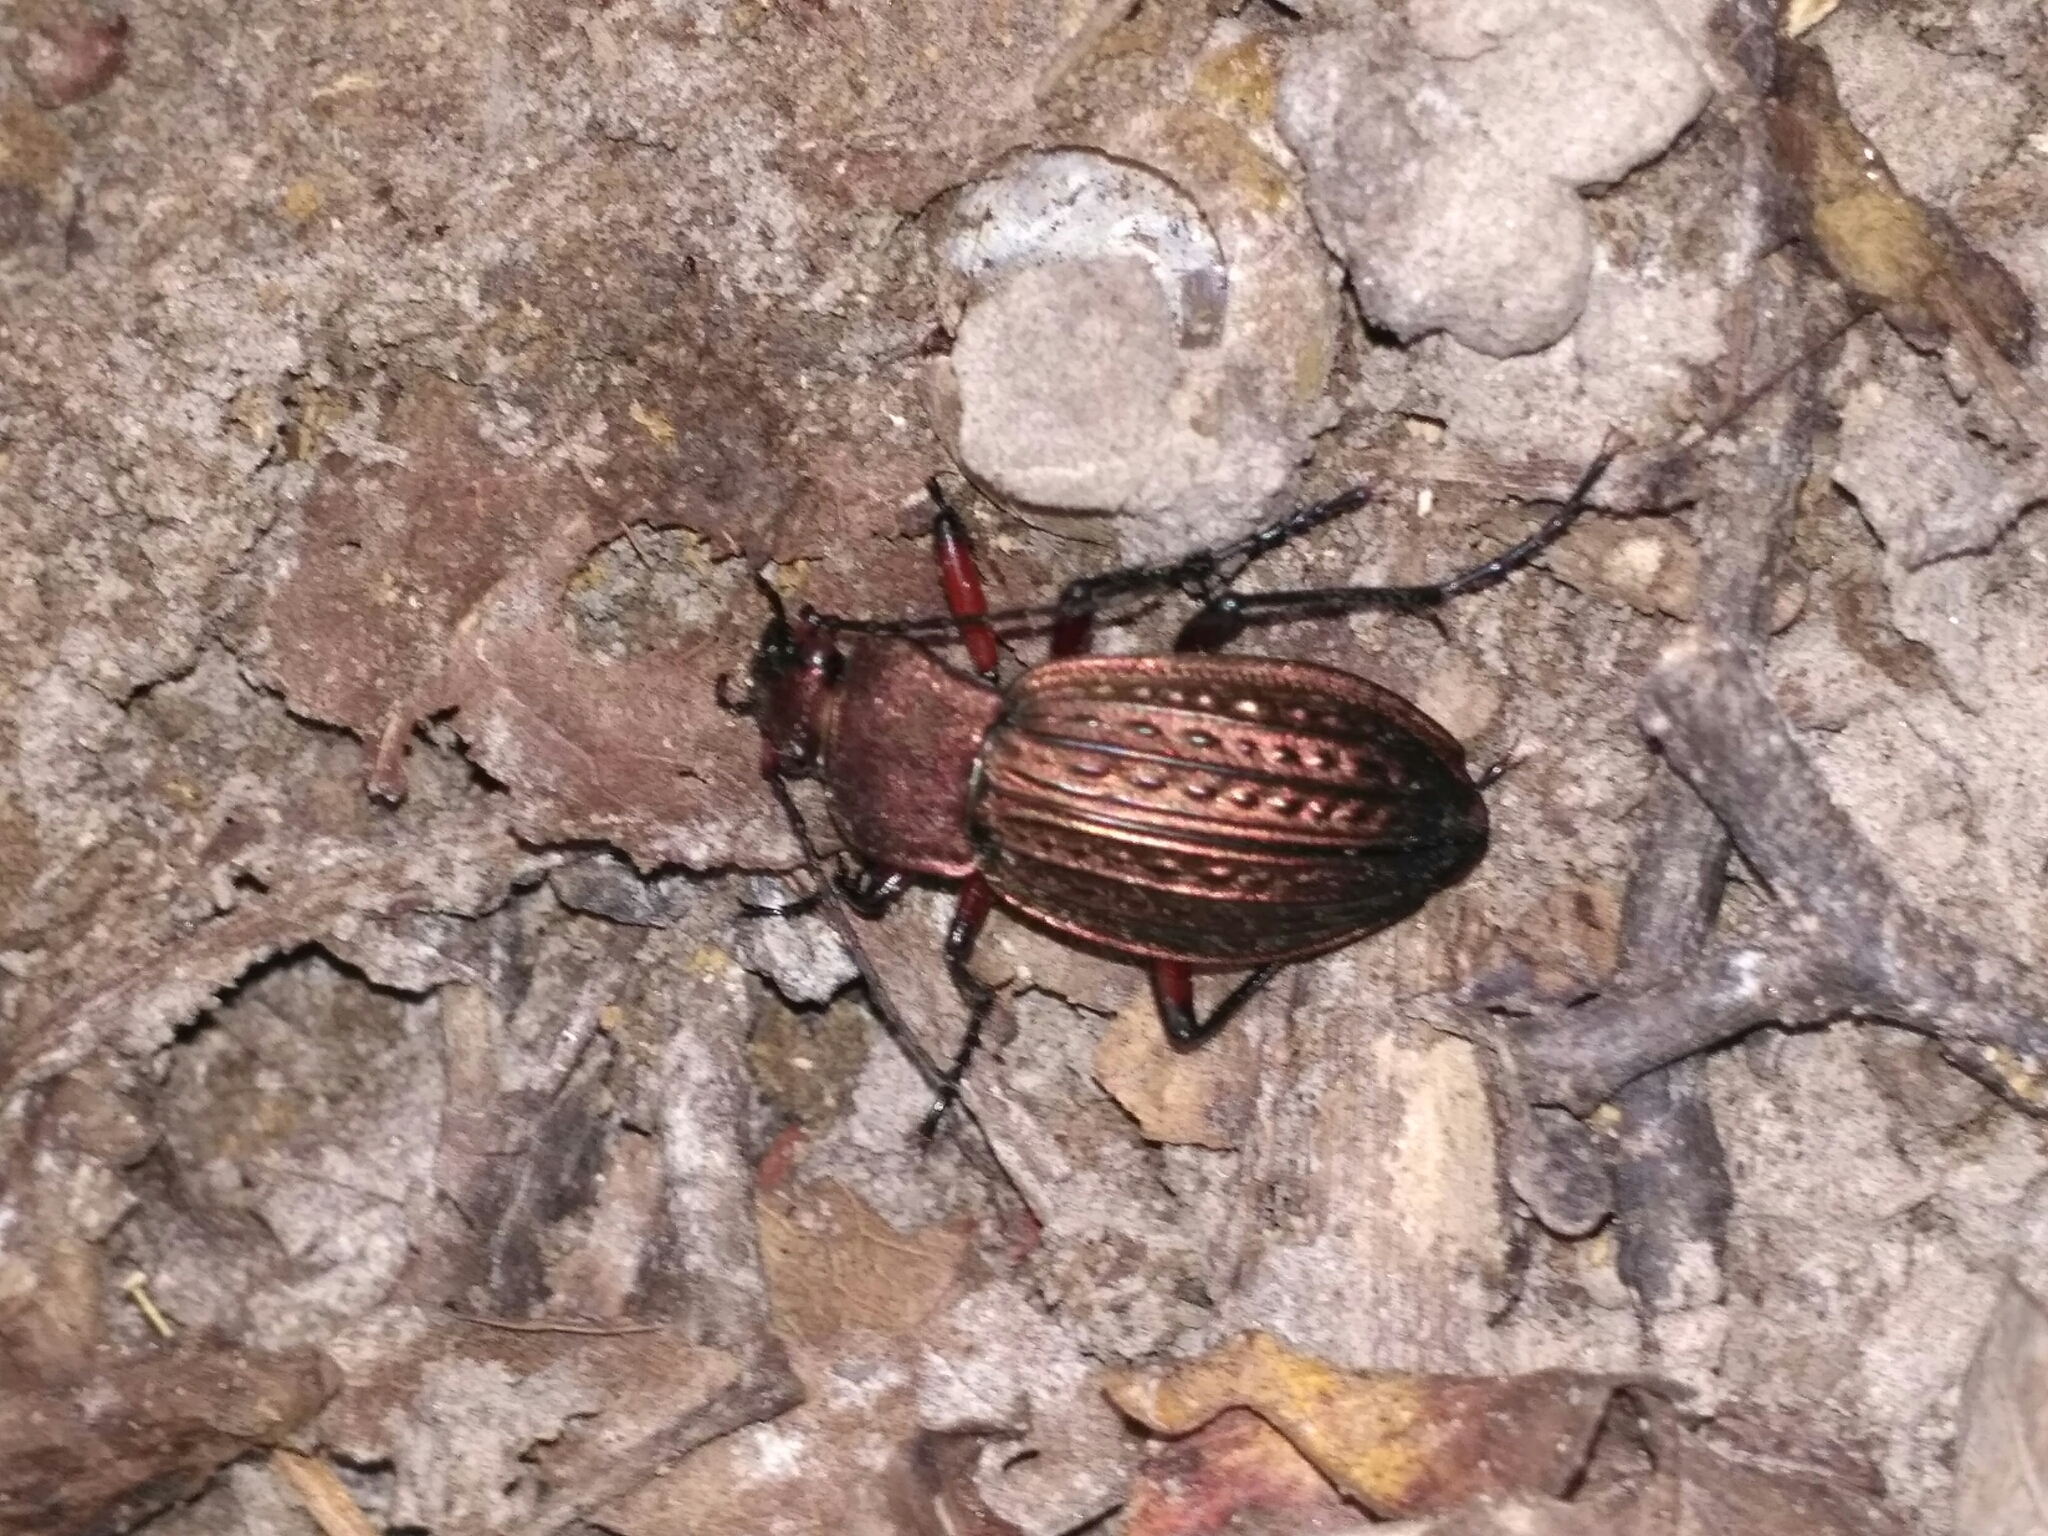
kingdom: Animalia
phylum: Arthropoda
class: Insecta
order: Coleoptera
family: Carabidae
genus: Carabus
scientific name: Carabus cancellatus
